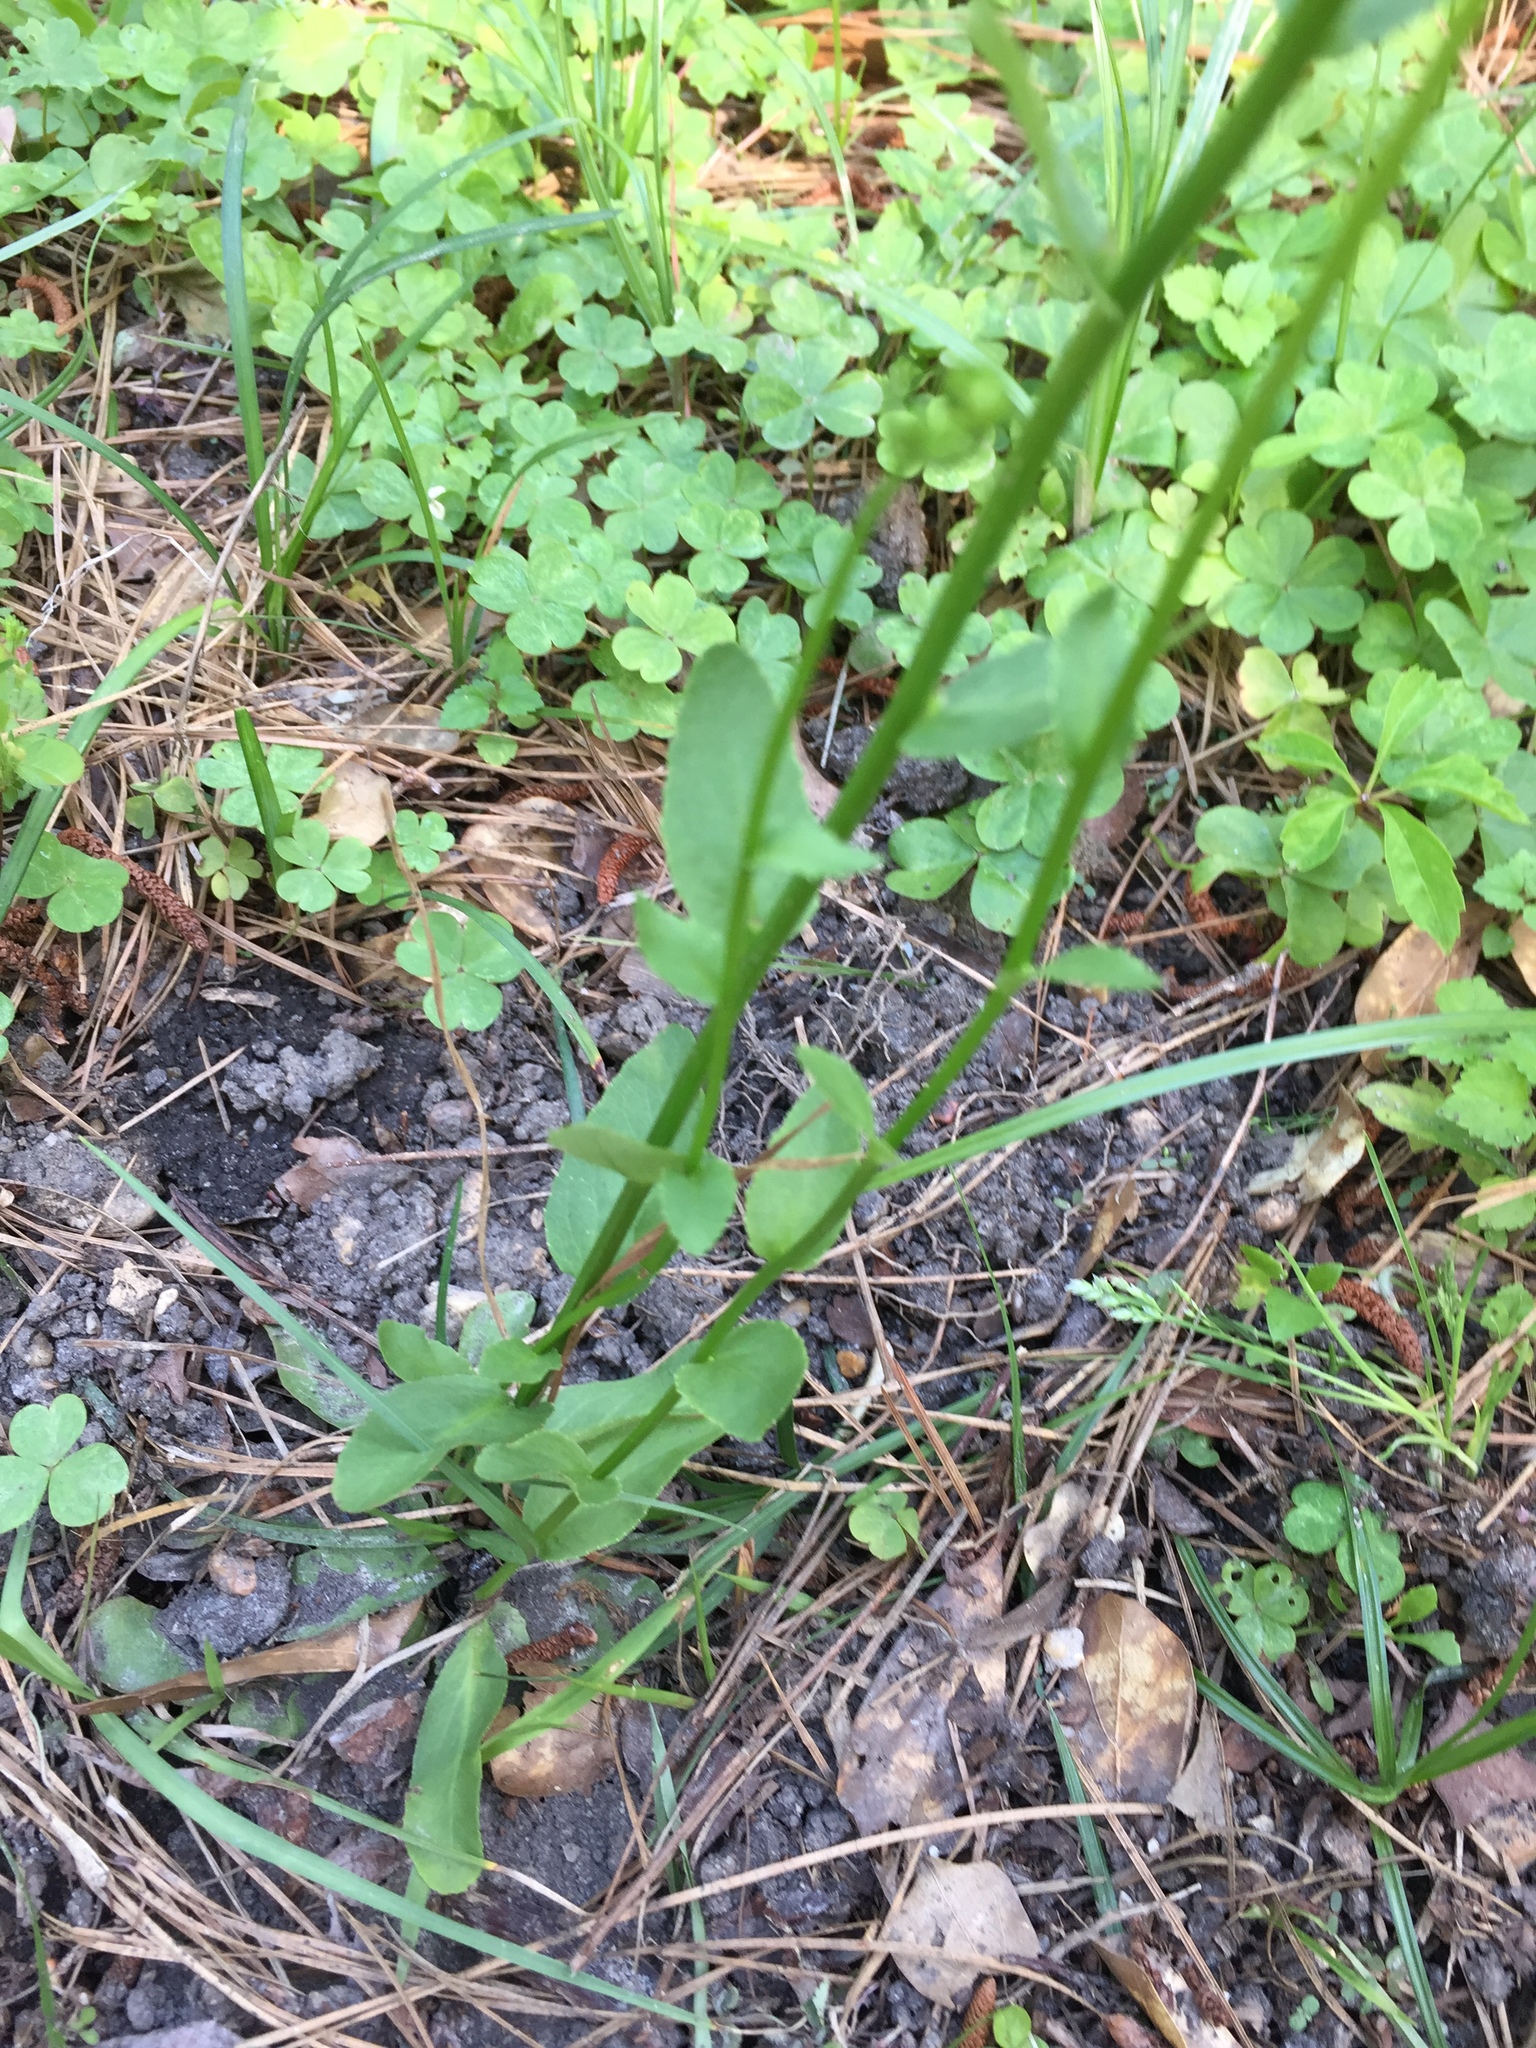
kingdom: Plantae
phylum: Tracheophyta
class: Magnoliopsida
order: Asterales
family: Campanulaceae
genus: Lobelia
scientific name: Lobelia appendiculata
